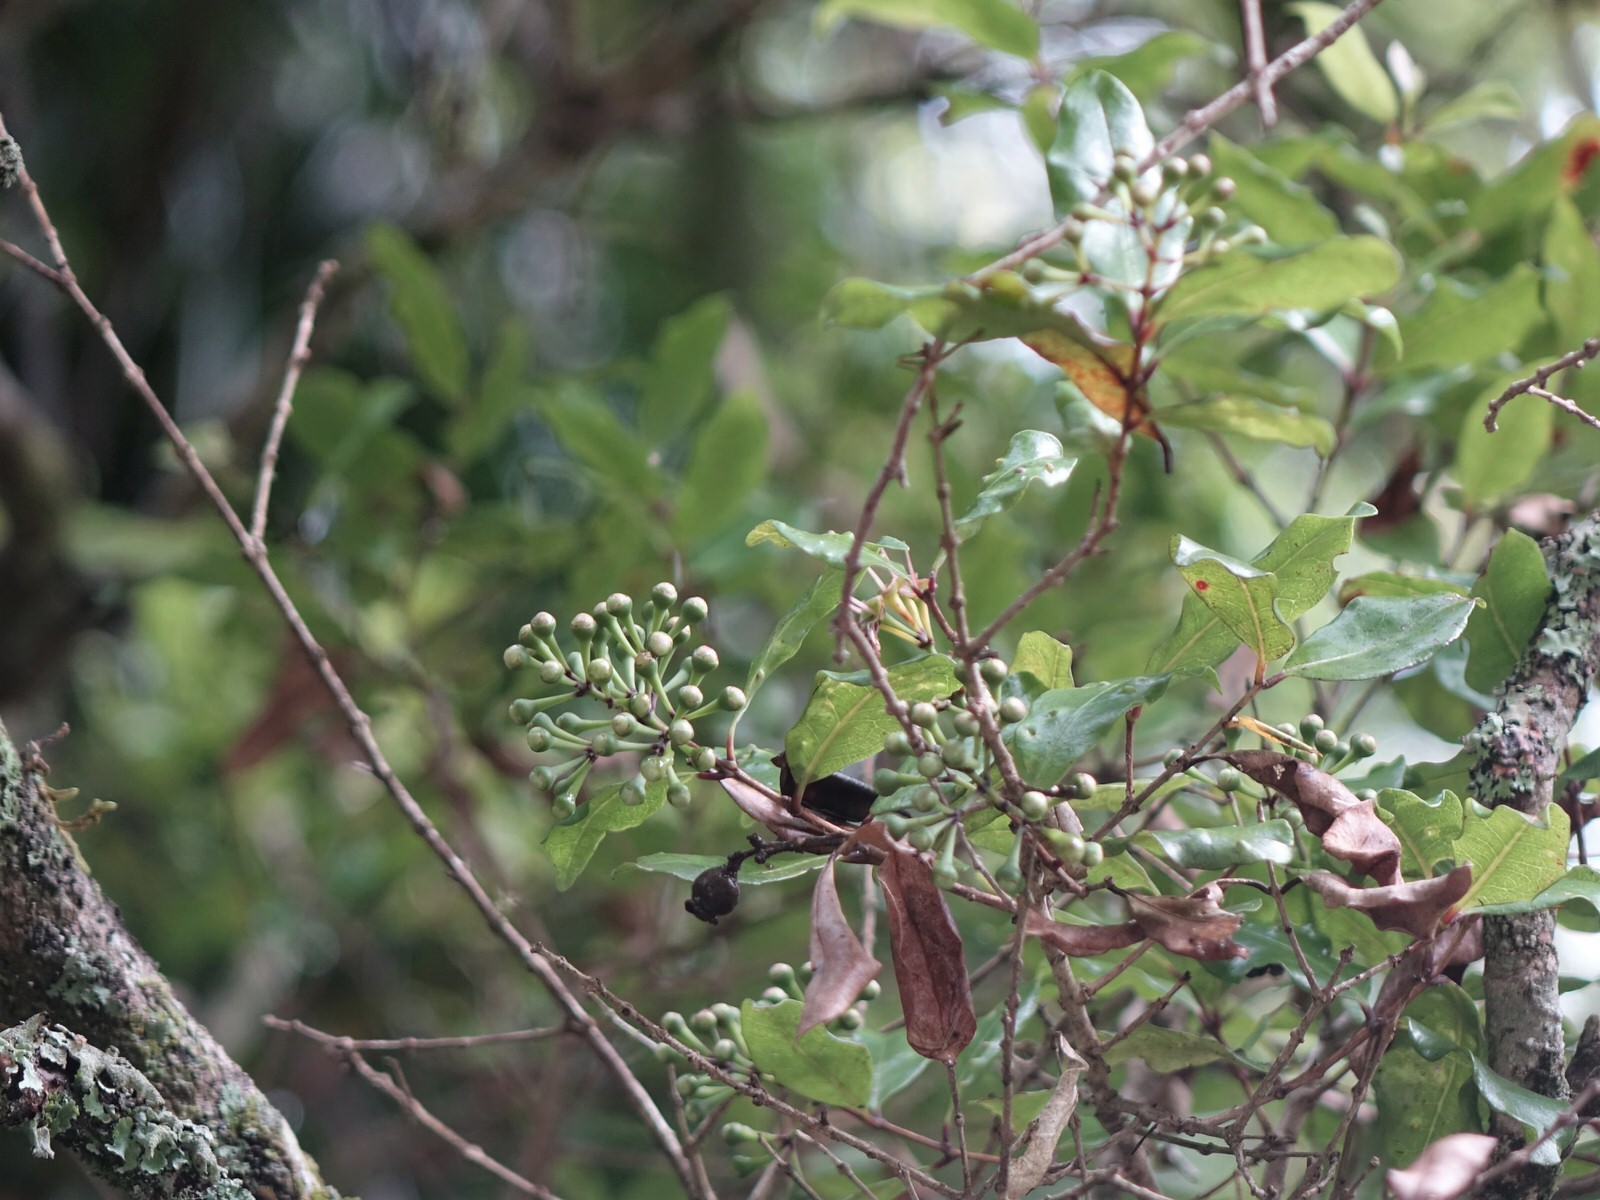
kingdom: Plantae
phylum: Tracheophyta
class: Magnoliopsida
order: Myrtales
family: Myrtaceae
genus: Syzygium
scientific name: Syzygium maire
